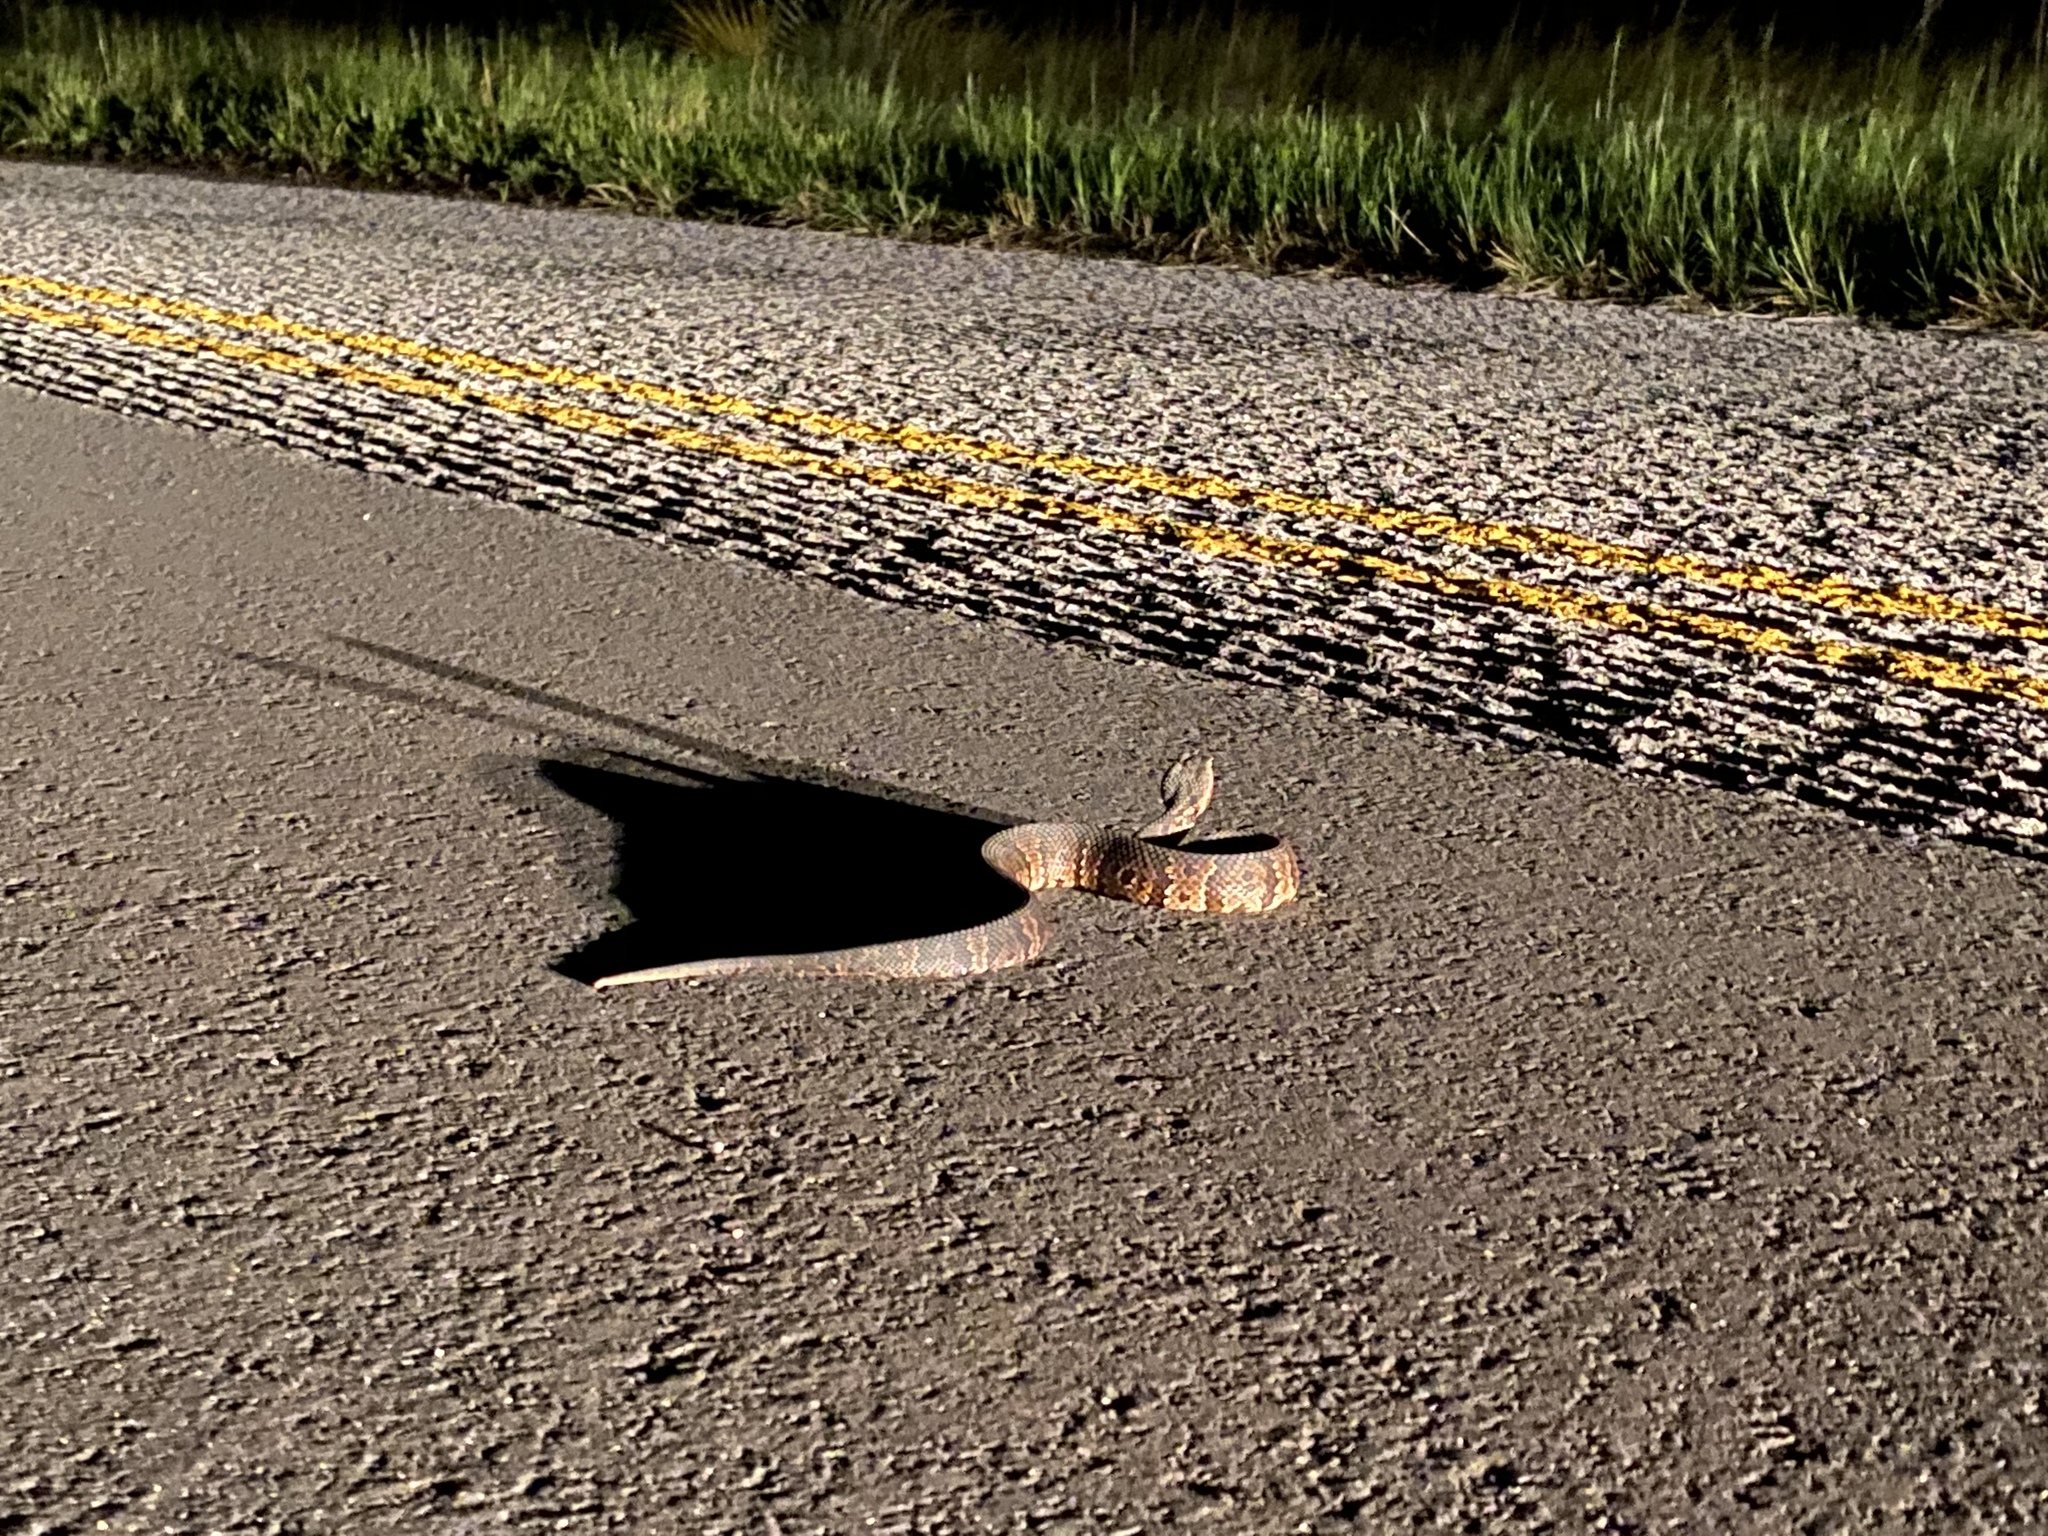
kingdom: Animalia
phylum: Chordata
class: Squamata
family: Viperidae
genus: Agkistrodon
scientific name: Agkistrodon conanti
